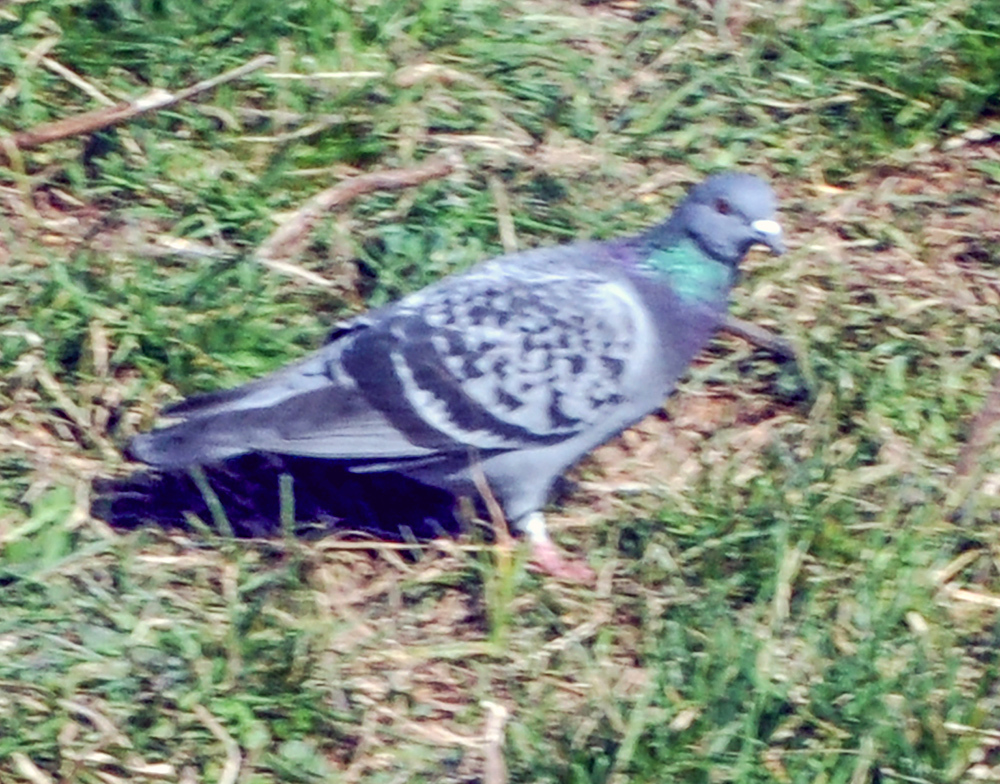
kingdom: Animalia
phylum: Chordata
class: Aves
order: Columbiformes
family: Columbidae
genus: Columba
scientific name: Columba livia
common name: Rock pigeon
